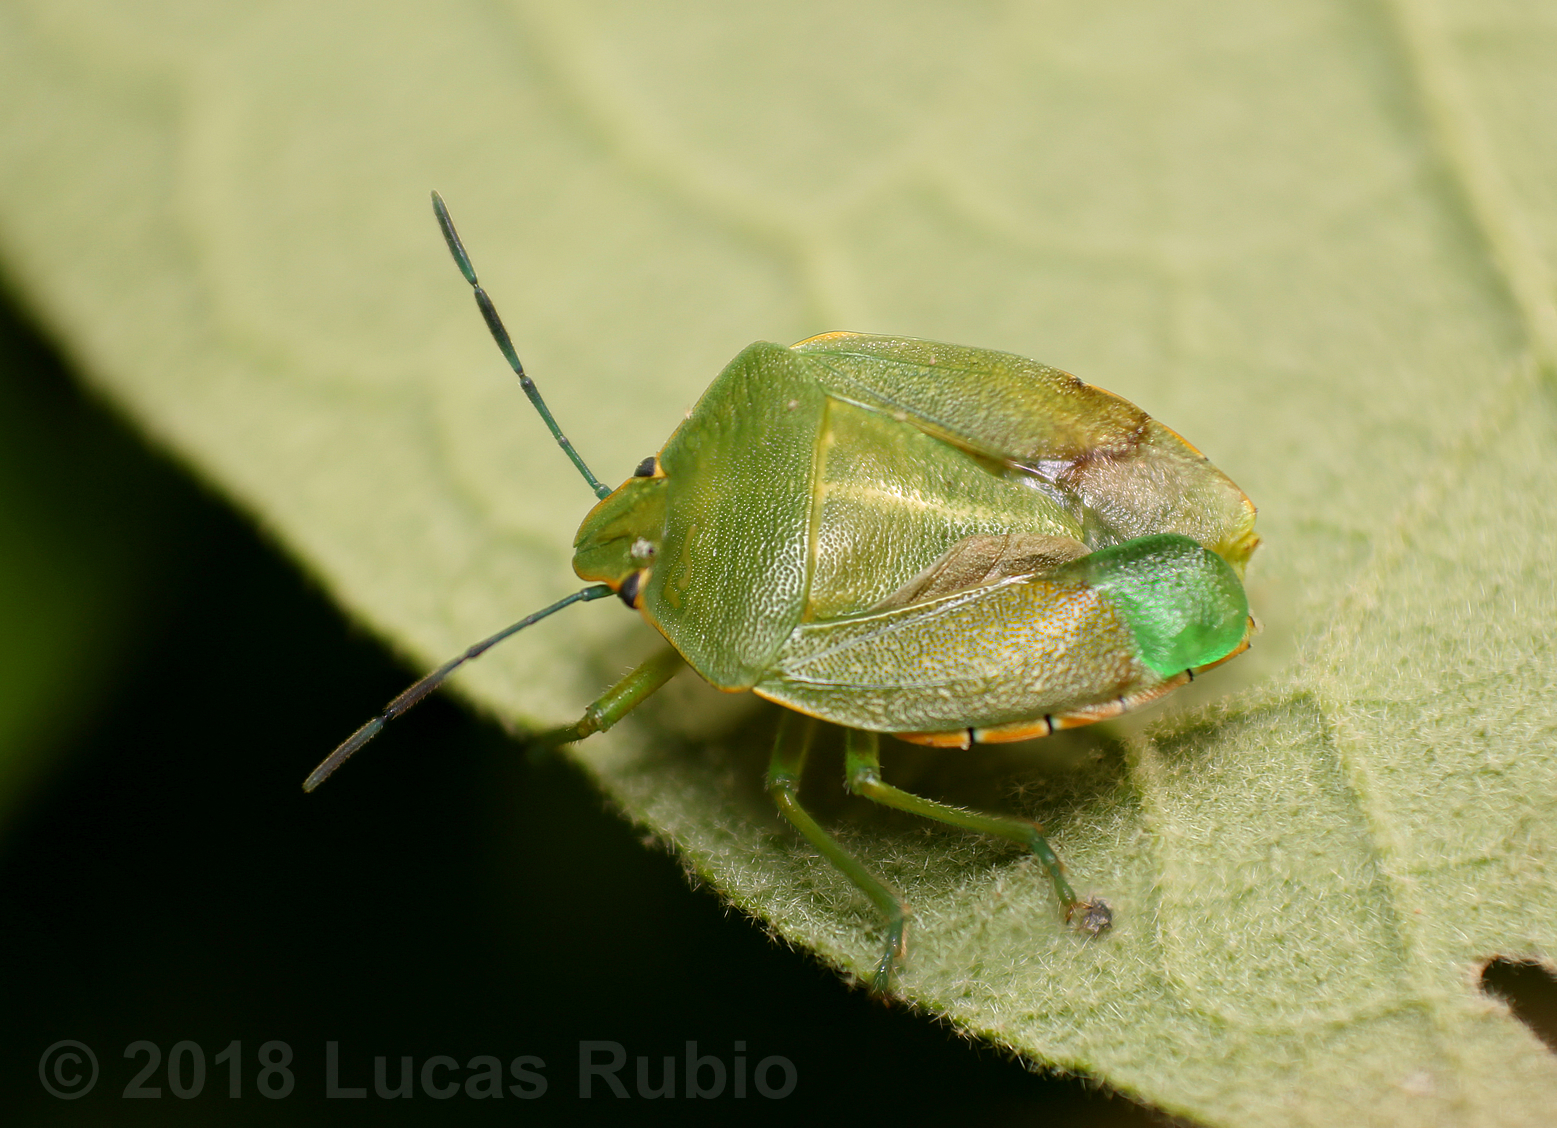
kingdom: Animalia
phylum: Arthropoda
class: Insecta
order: Hemiptera
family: Pentatomidae
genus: Chinavia
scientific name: Chinavia herbida
